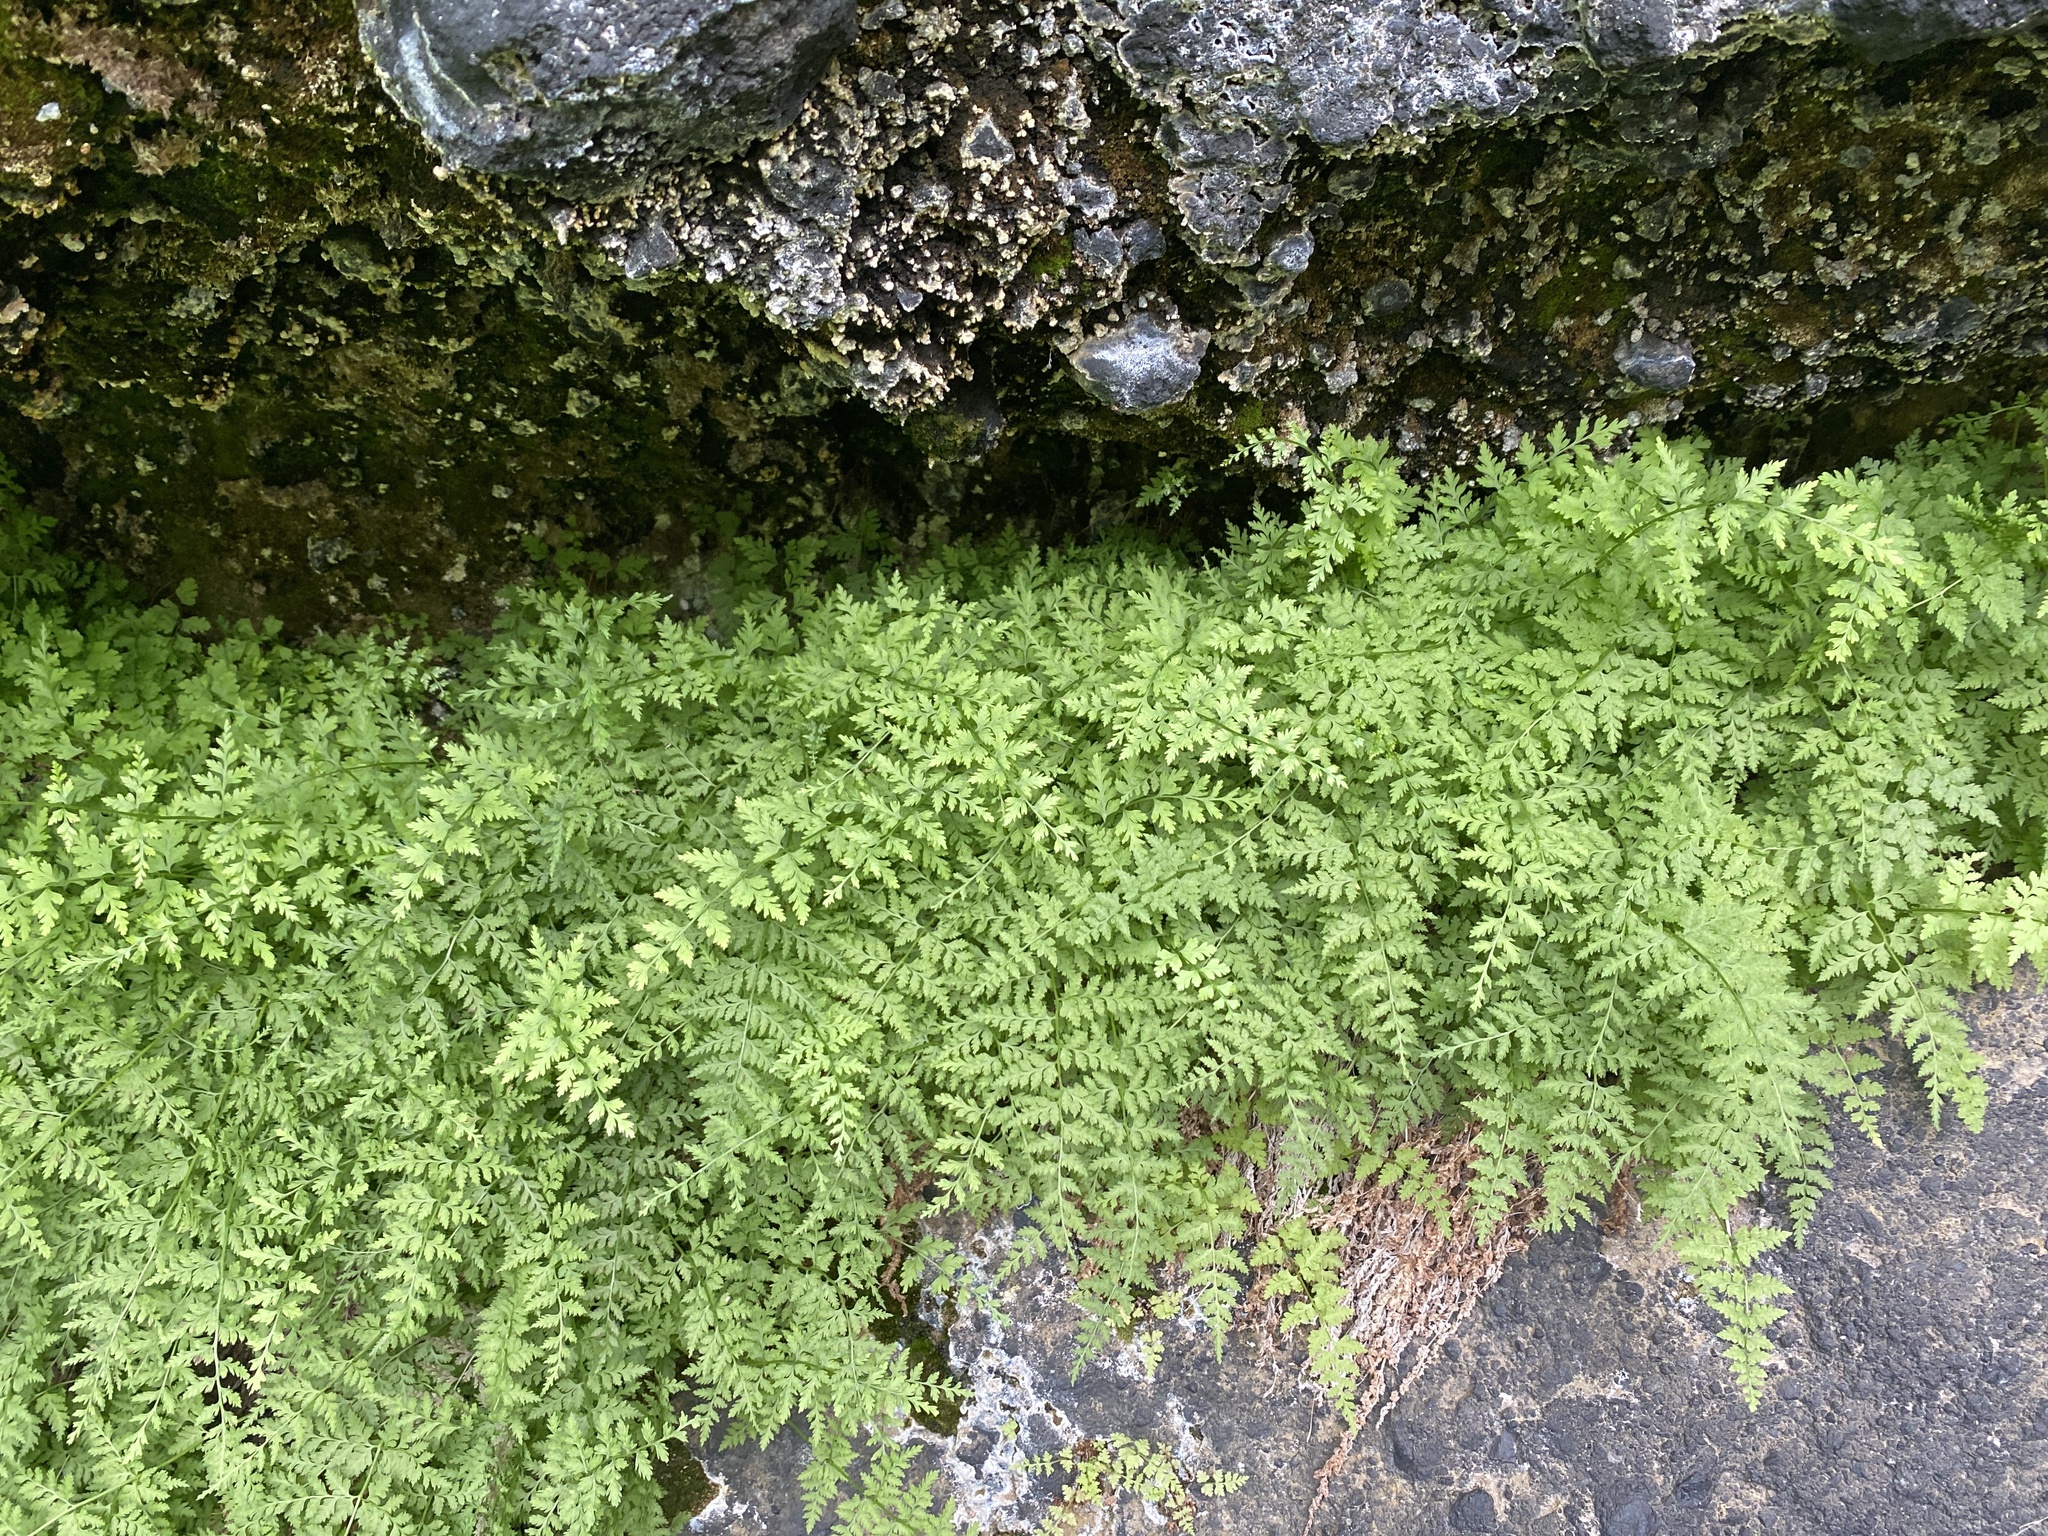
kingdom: Plantae
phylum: Tracheophyta
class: Polypodiopsida
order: Polypodiales
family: Cystopteridaceae
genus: Cystopteris
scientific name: Cystopteris fragilis
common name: Brittle bladder fern
